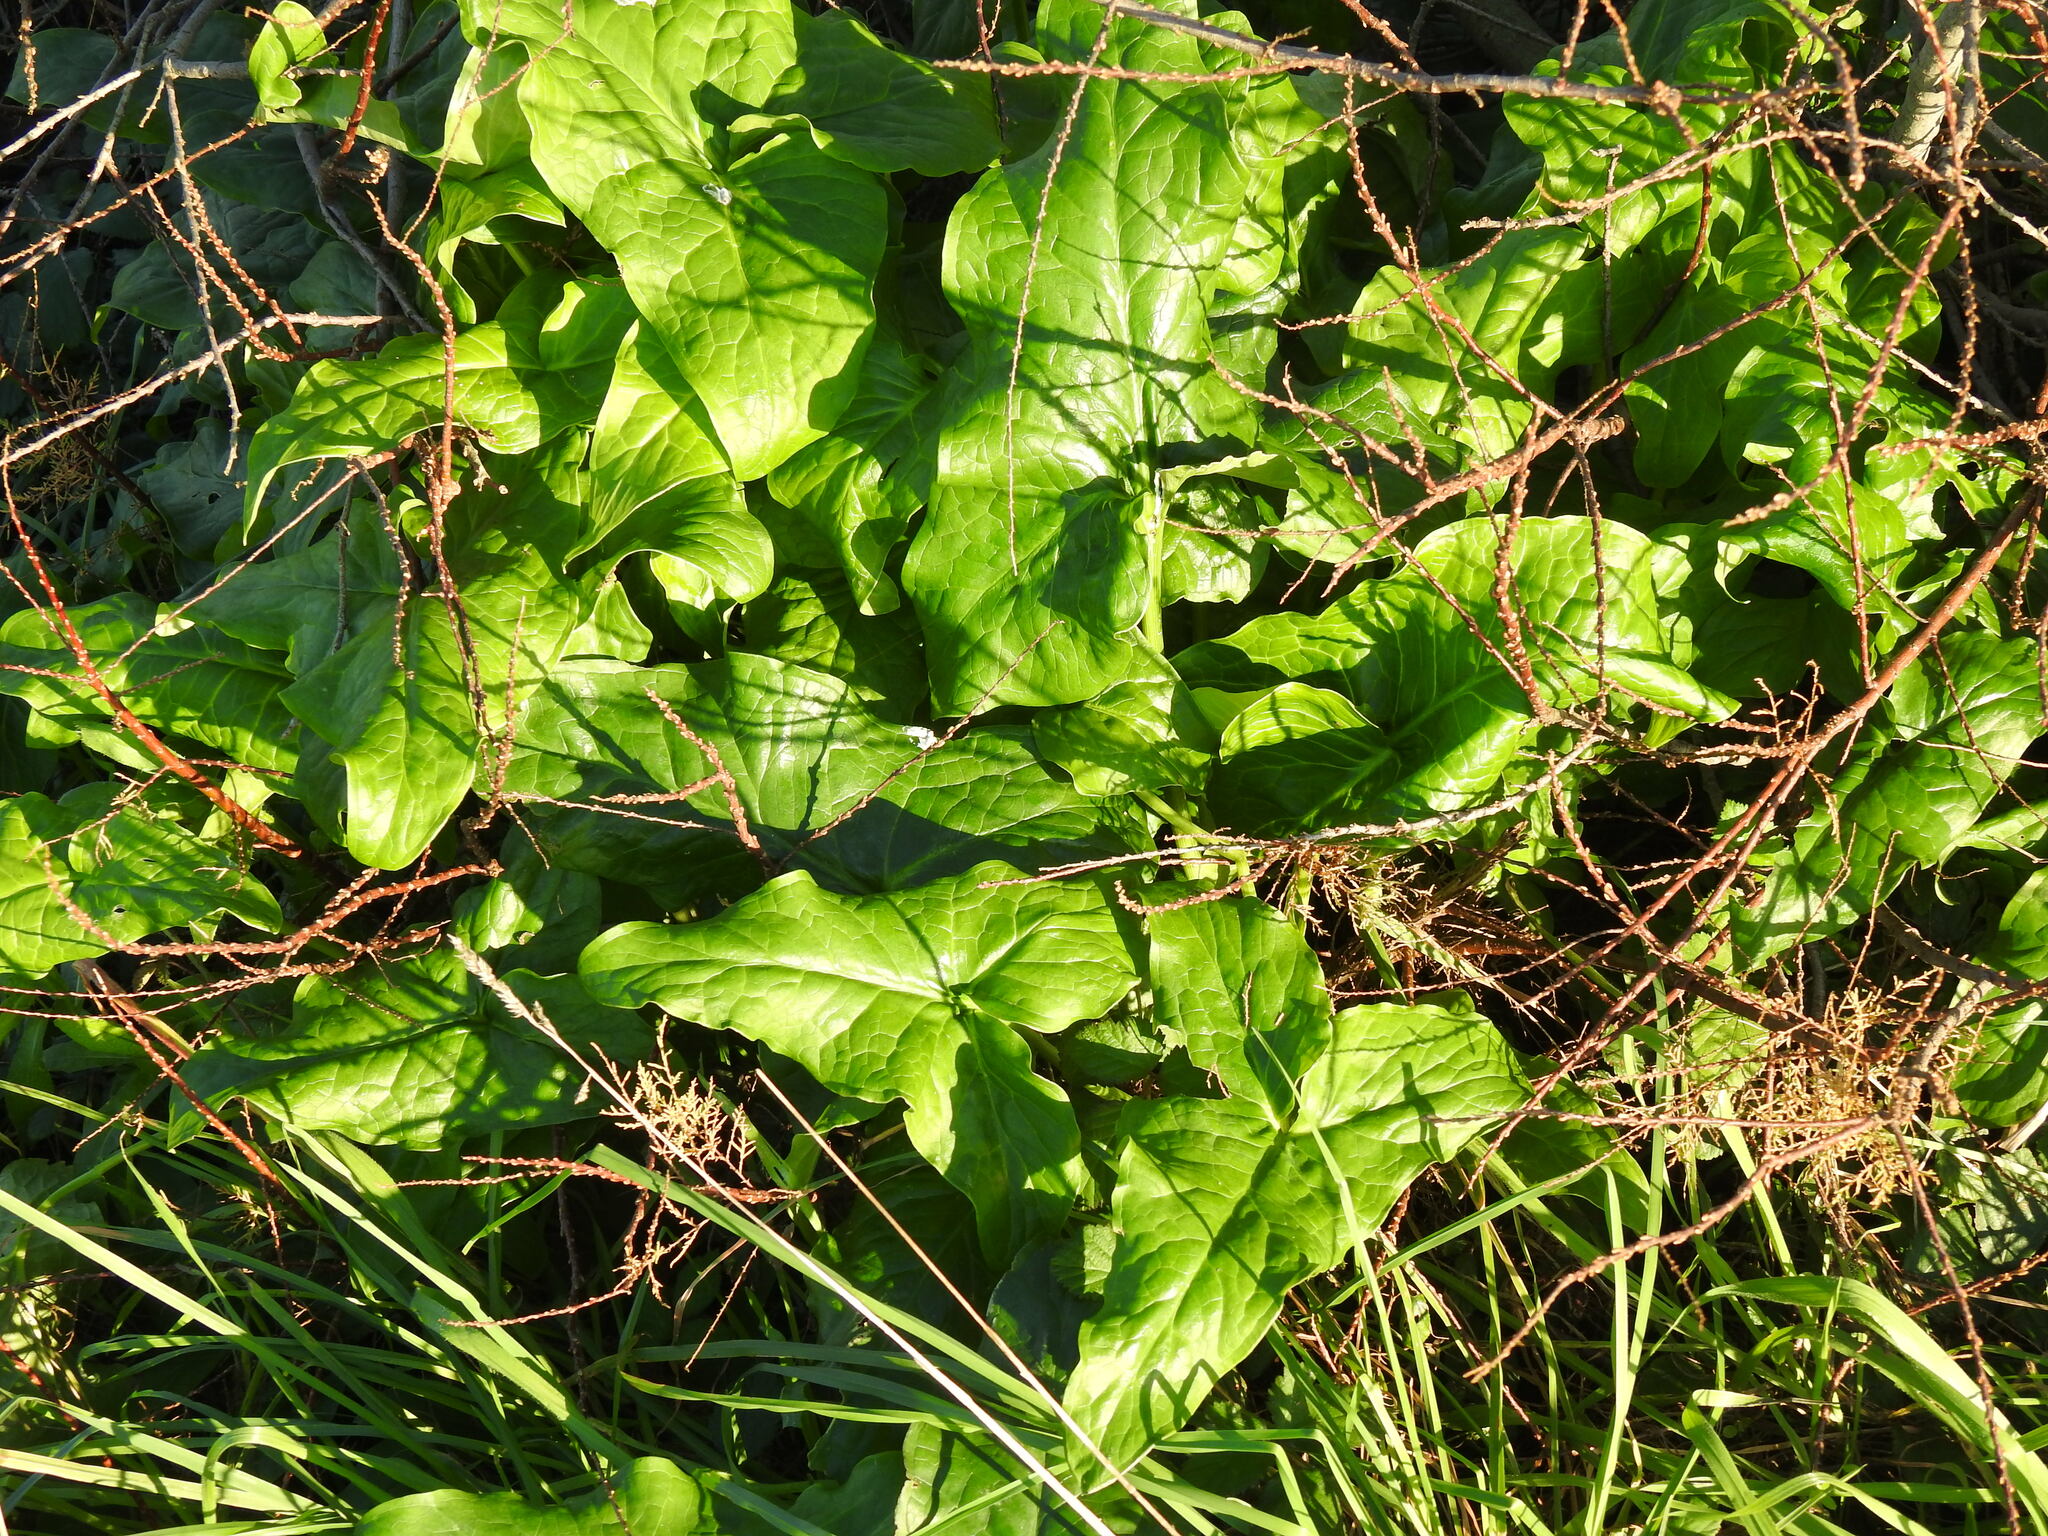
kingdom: Plantae
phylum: Tracheophyta
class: Liliopsida
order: Alismatales
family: Araceae
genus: Arum
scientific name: Arum italicum
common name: Italian lords-and-ladies
